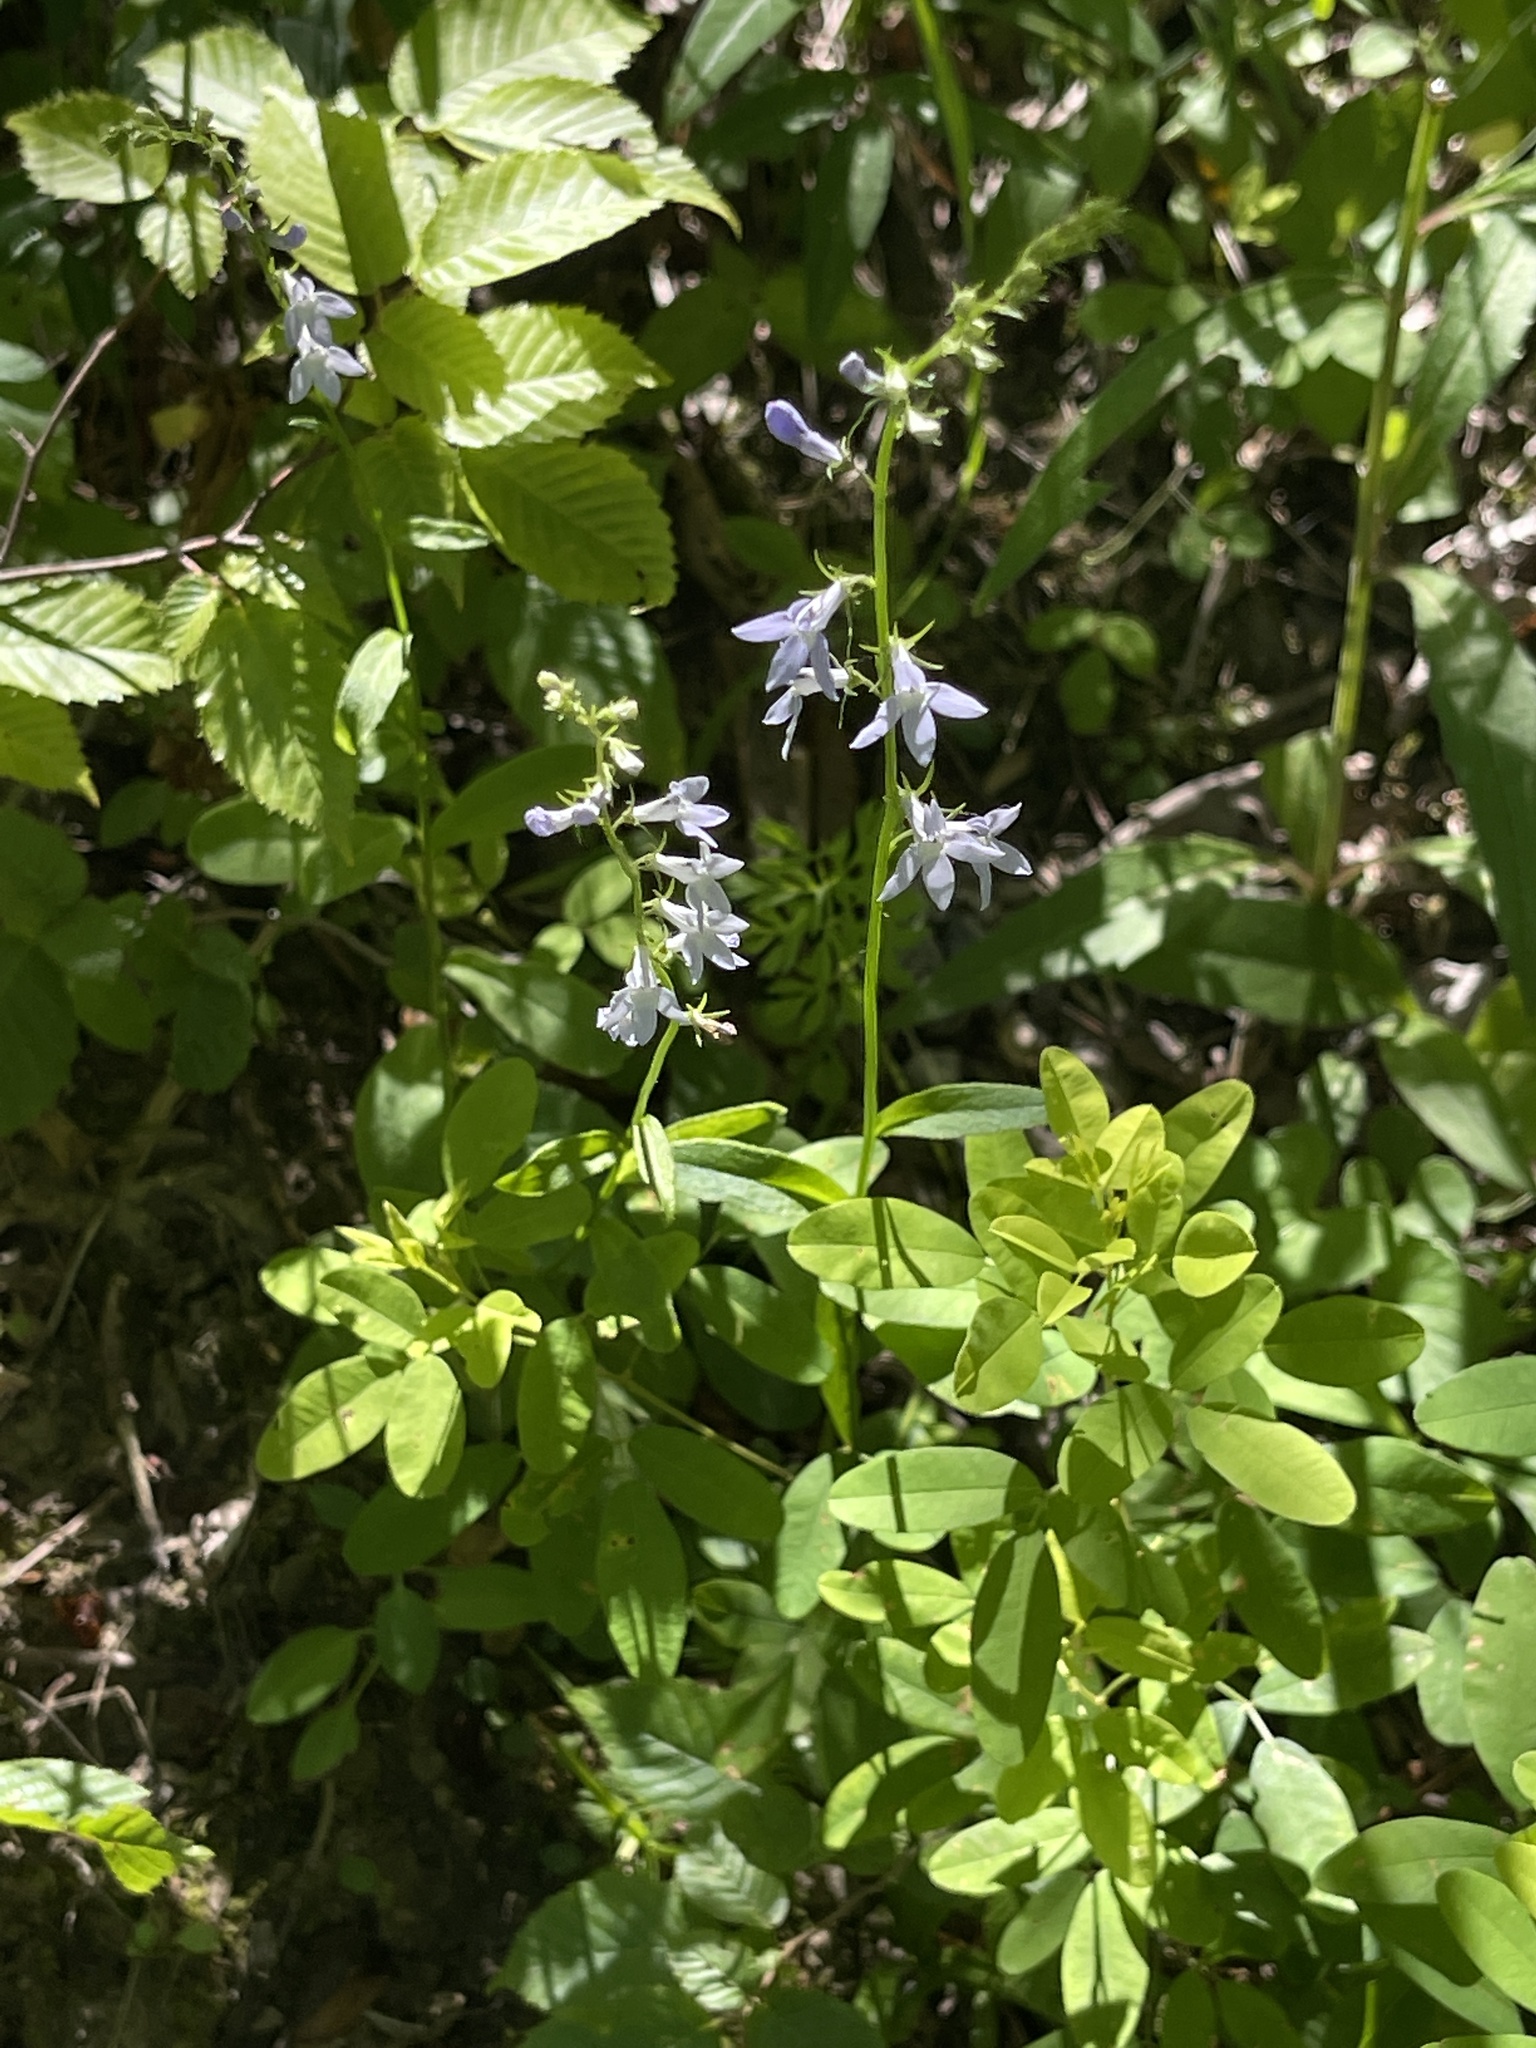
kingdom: Plantae
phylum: Tracheophyta
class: Magnoliopsida
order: Asterales
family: Campanulaceae
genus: Lobelia
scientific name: Lobelia spicata
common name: Pale-spike lobelia
